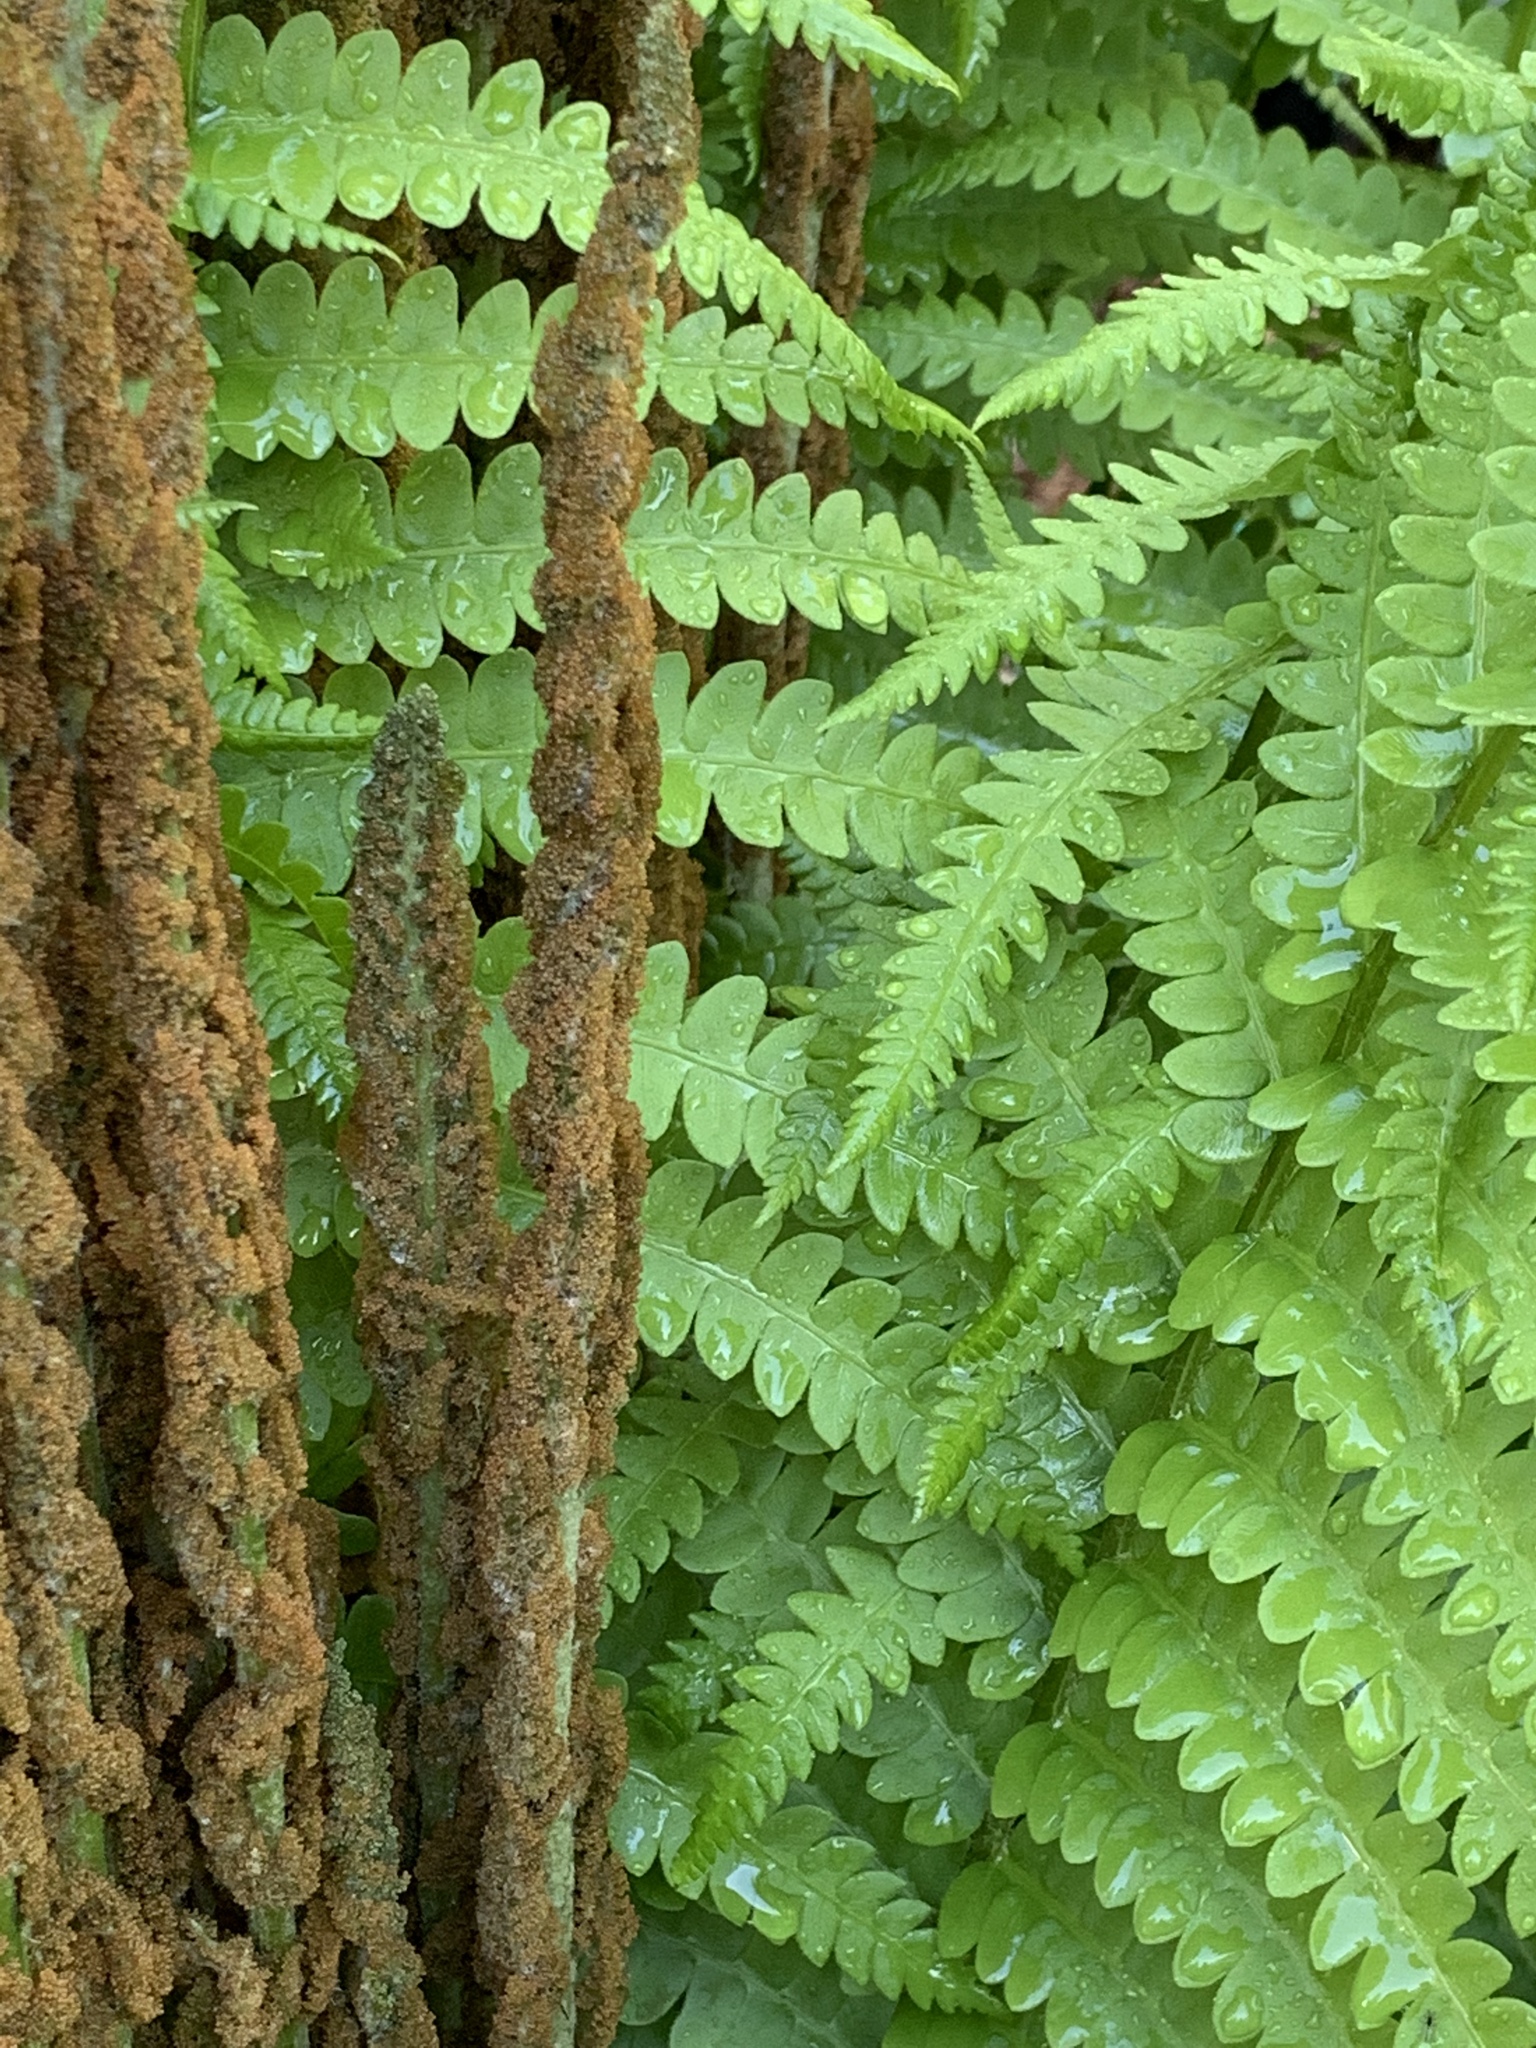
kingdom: Plantae
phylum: Tracheophyta
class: Polypodiopsida
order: Osmundales
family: Osmundaceae
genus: Osmundastrum
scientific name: Osmundastrum cinnamomeum
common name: Cinnamon fern
